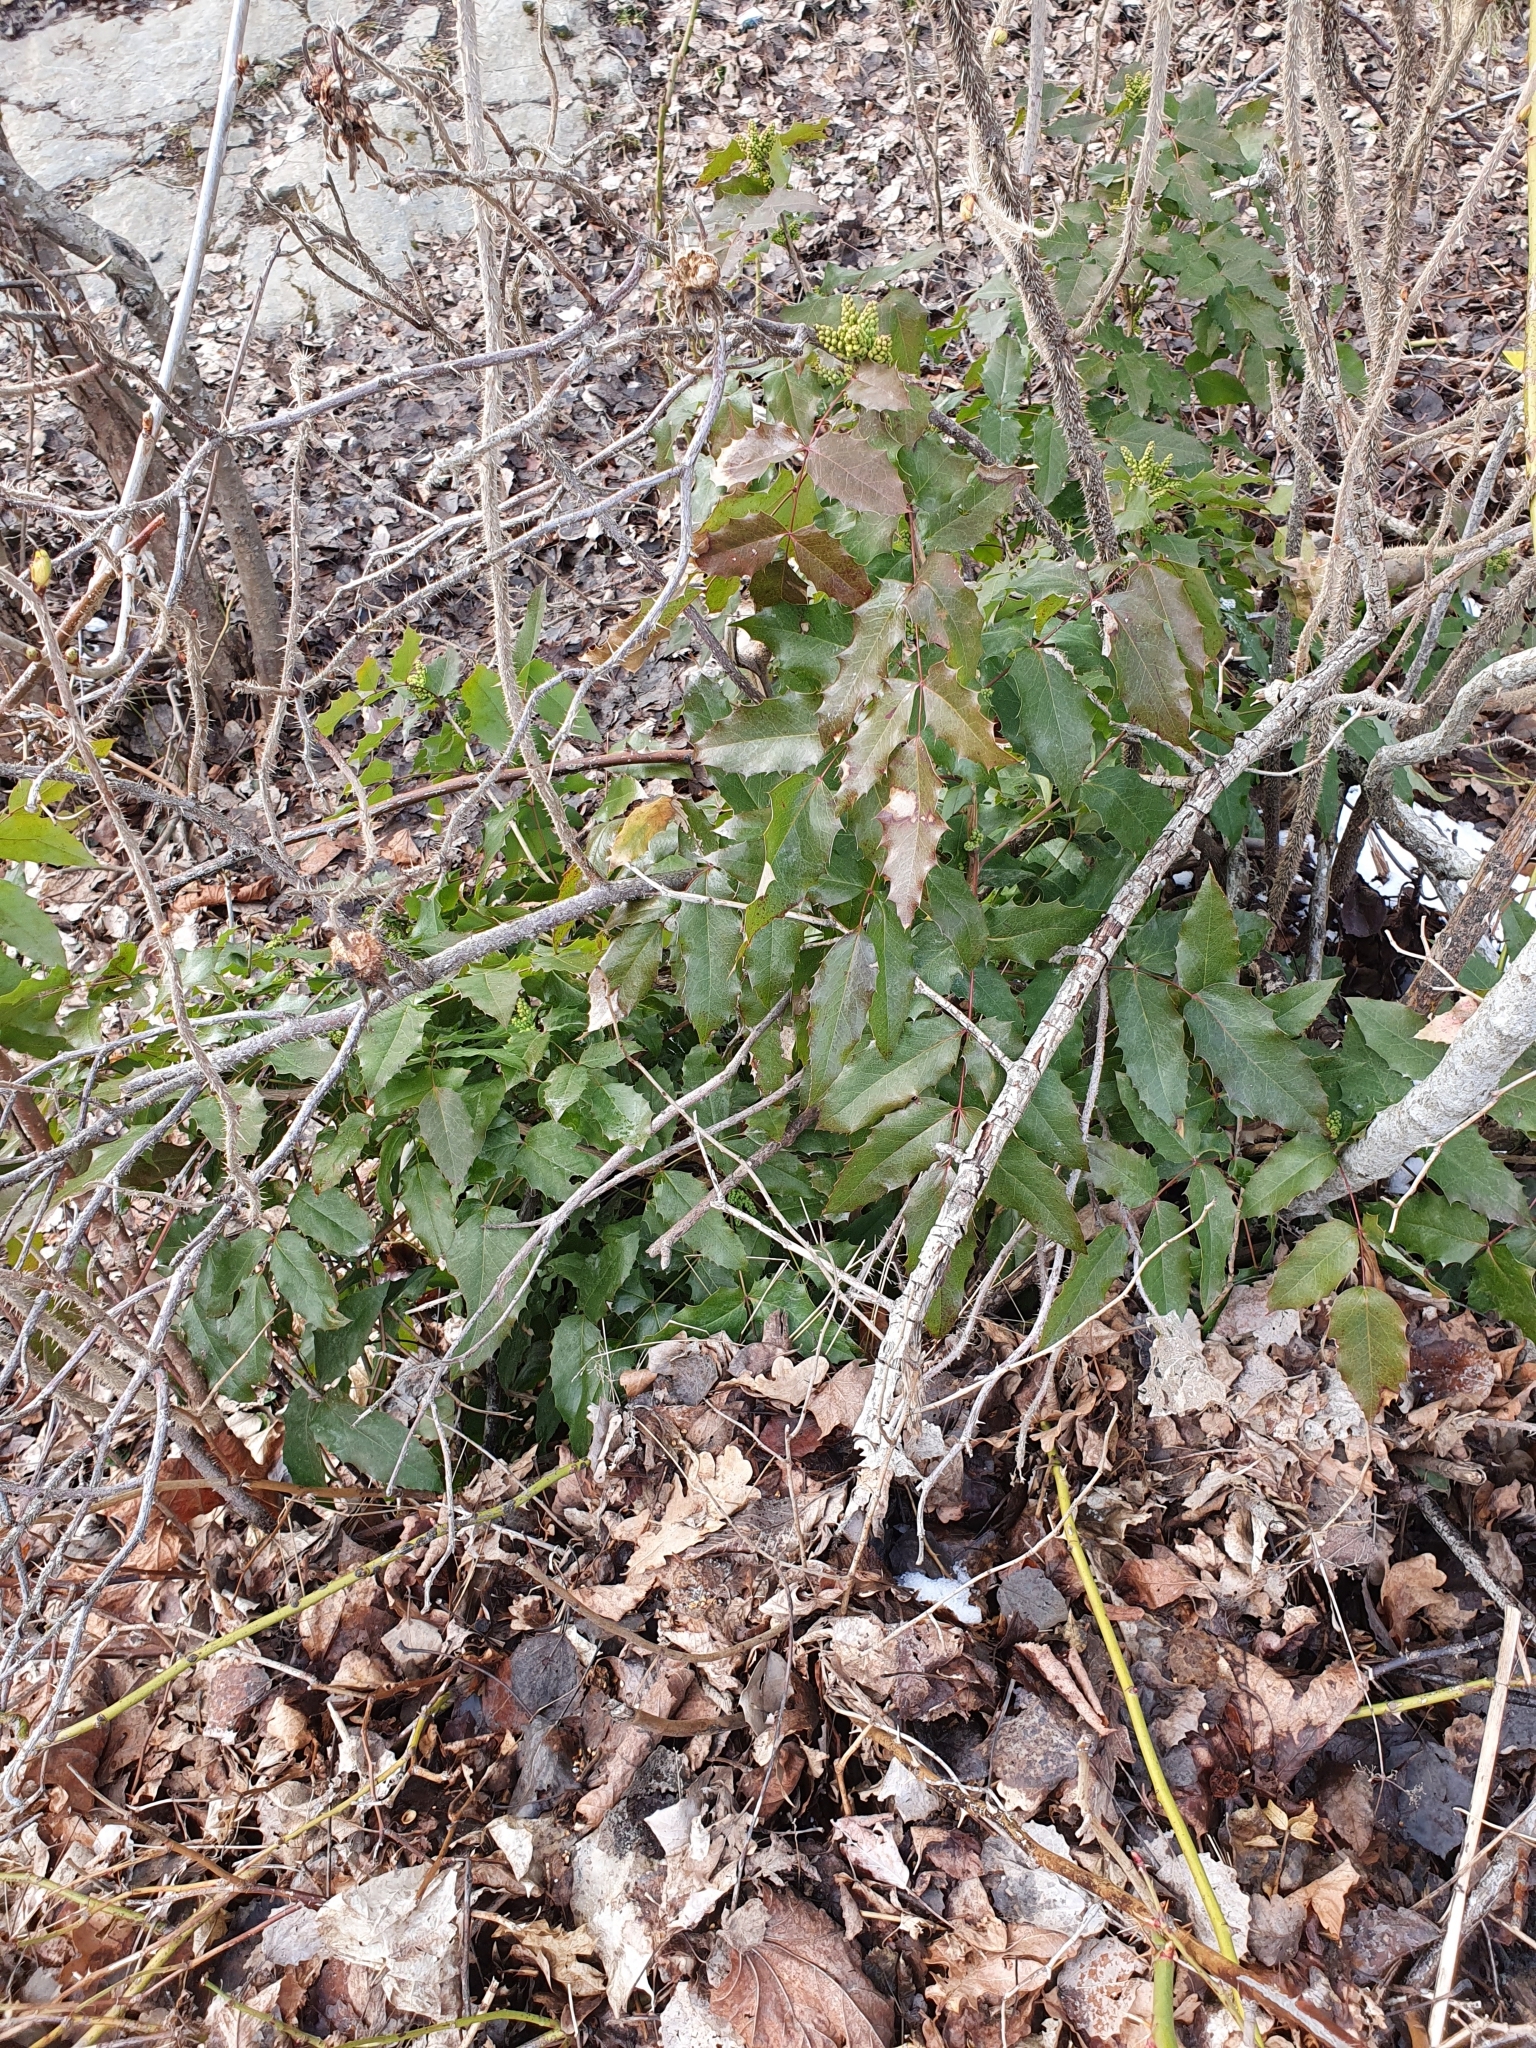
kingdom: Plantae
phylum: Tracheophyta
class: Magnoliopsida
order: Ranunculales
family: Berberidaceae
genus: Mahonia
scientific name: Mahonia aquifolium
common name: Oregon-grape
